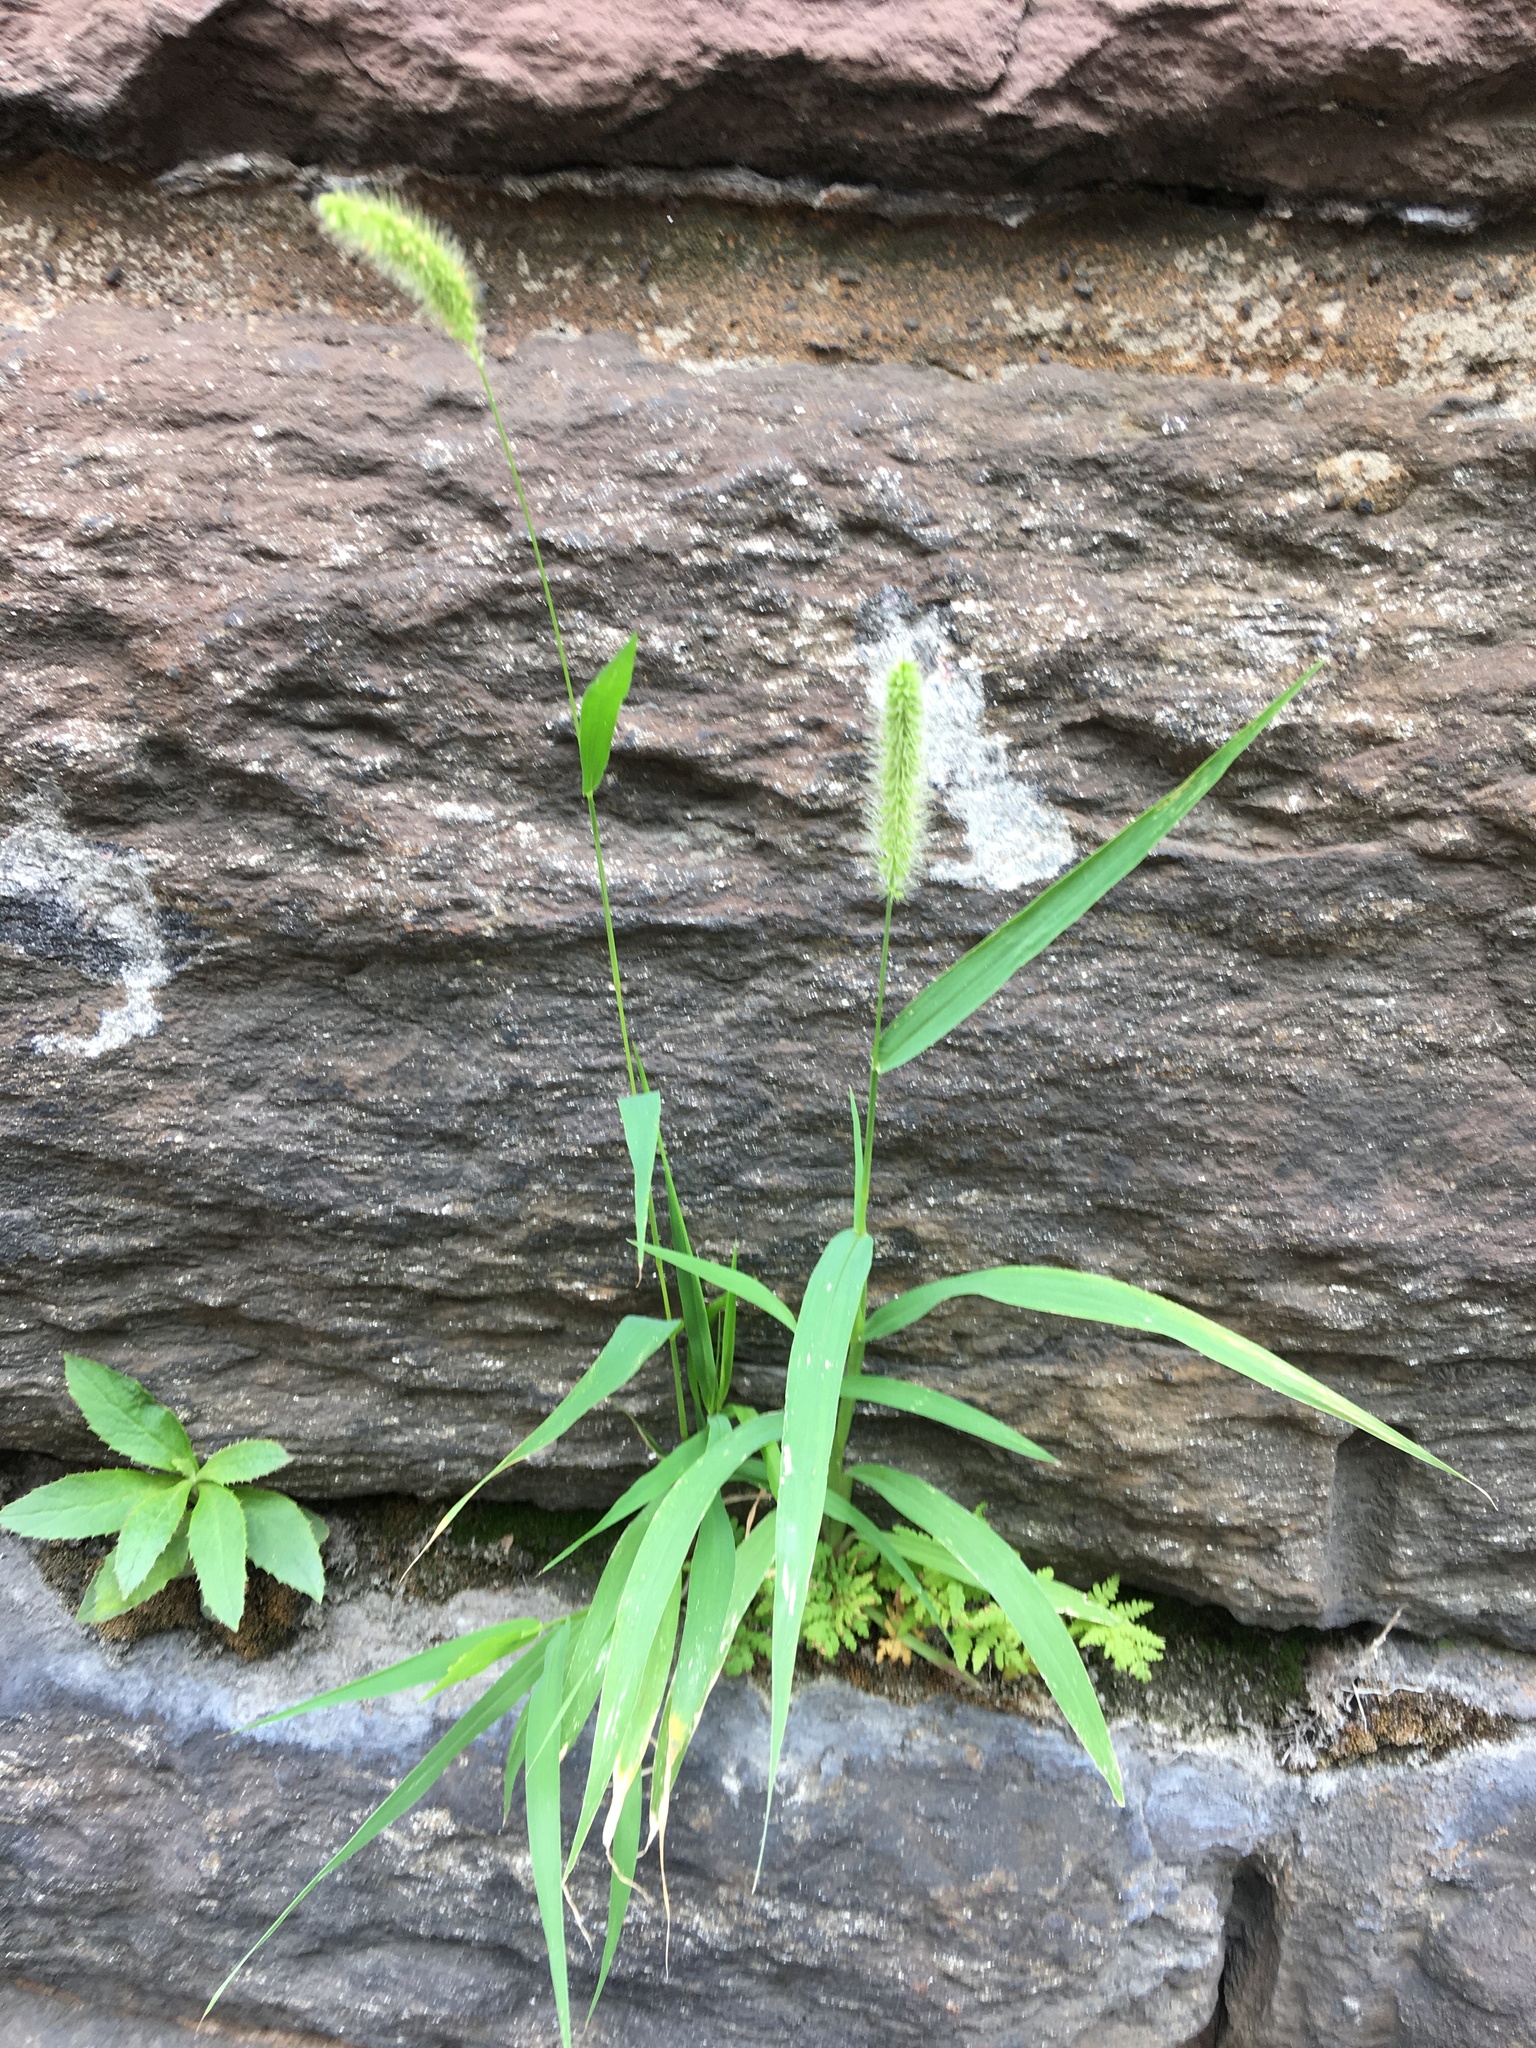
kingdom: Plantae
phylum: Tracheophyta
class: Liliopsida
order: Poales
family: Poaceae
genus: Setaria
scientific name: Setaria viridis
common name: Green bristlegrass
